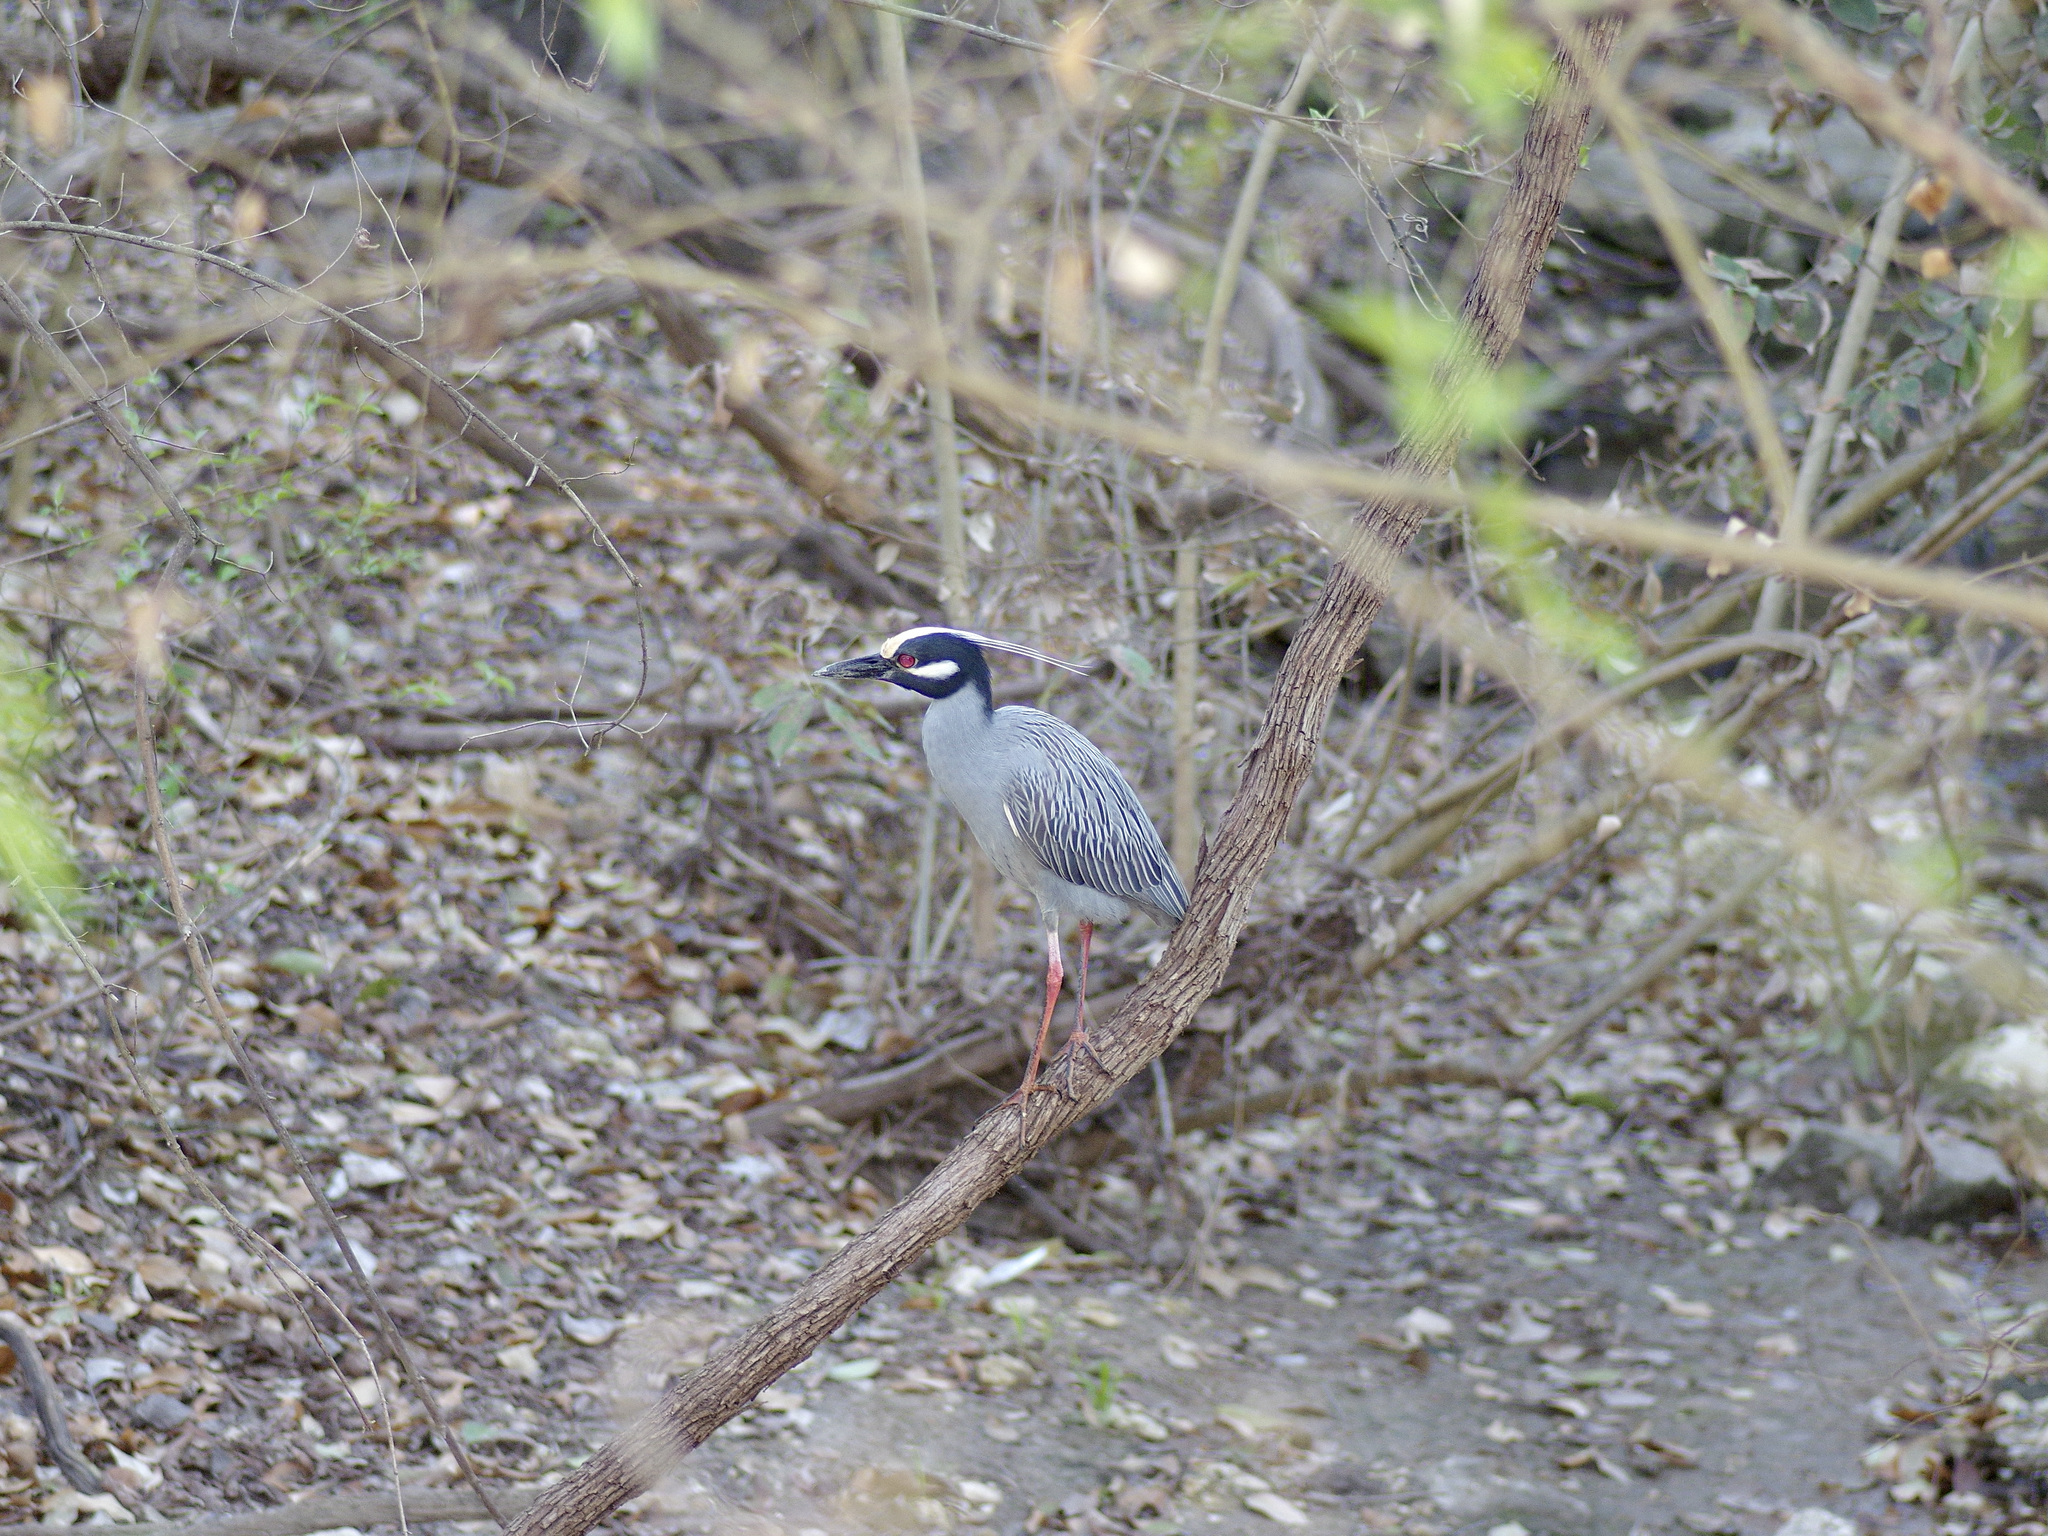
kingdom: Animalia
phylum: Chordata
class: Aves
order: Pelecaniformes
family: Ardeidae
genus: Nyctanassa
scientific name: Nyctanassa violacea
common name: Yellow-crowned night heron
